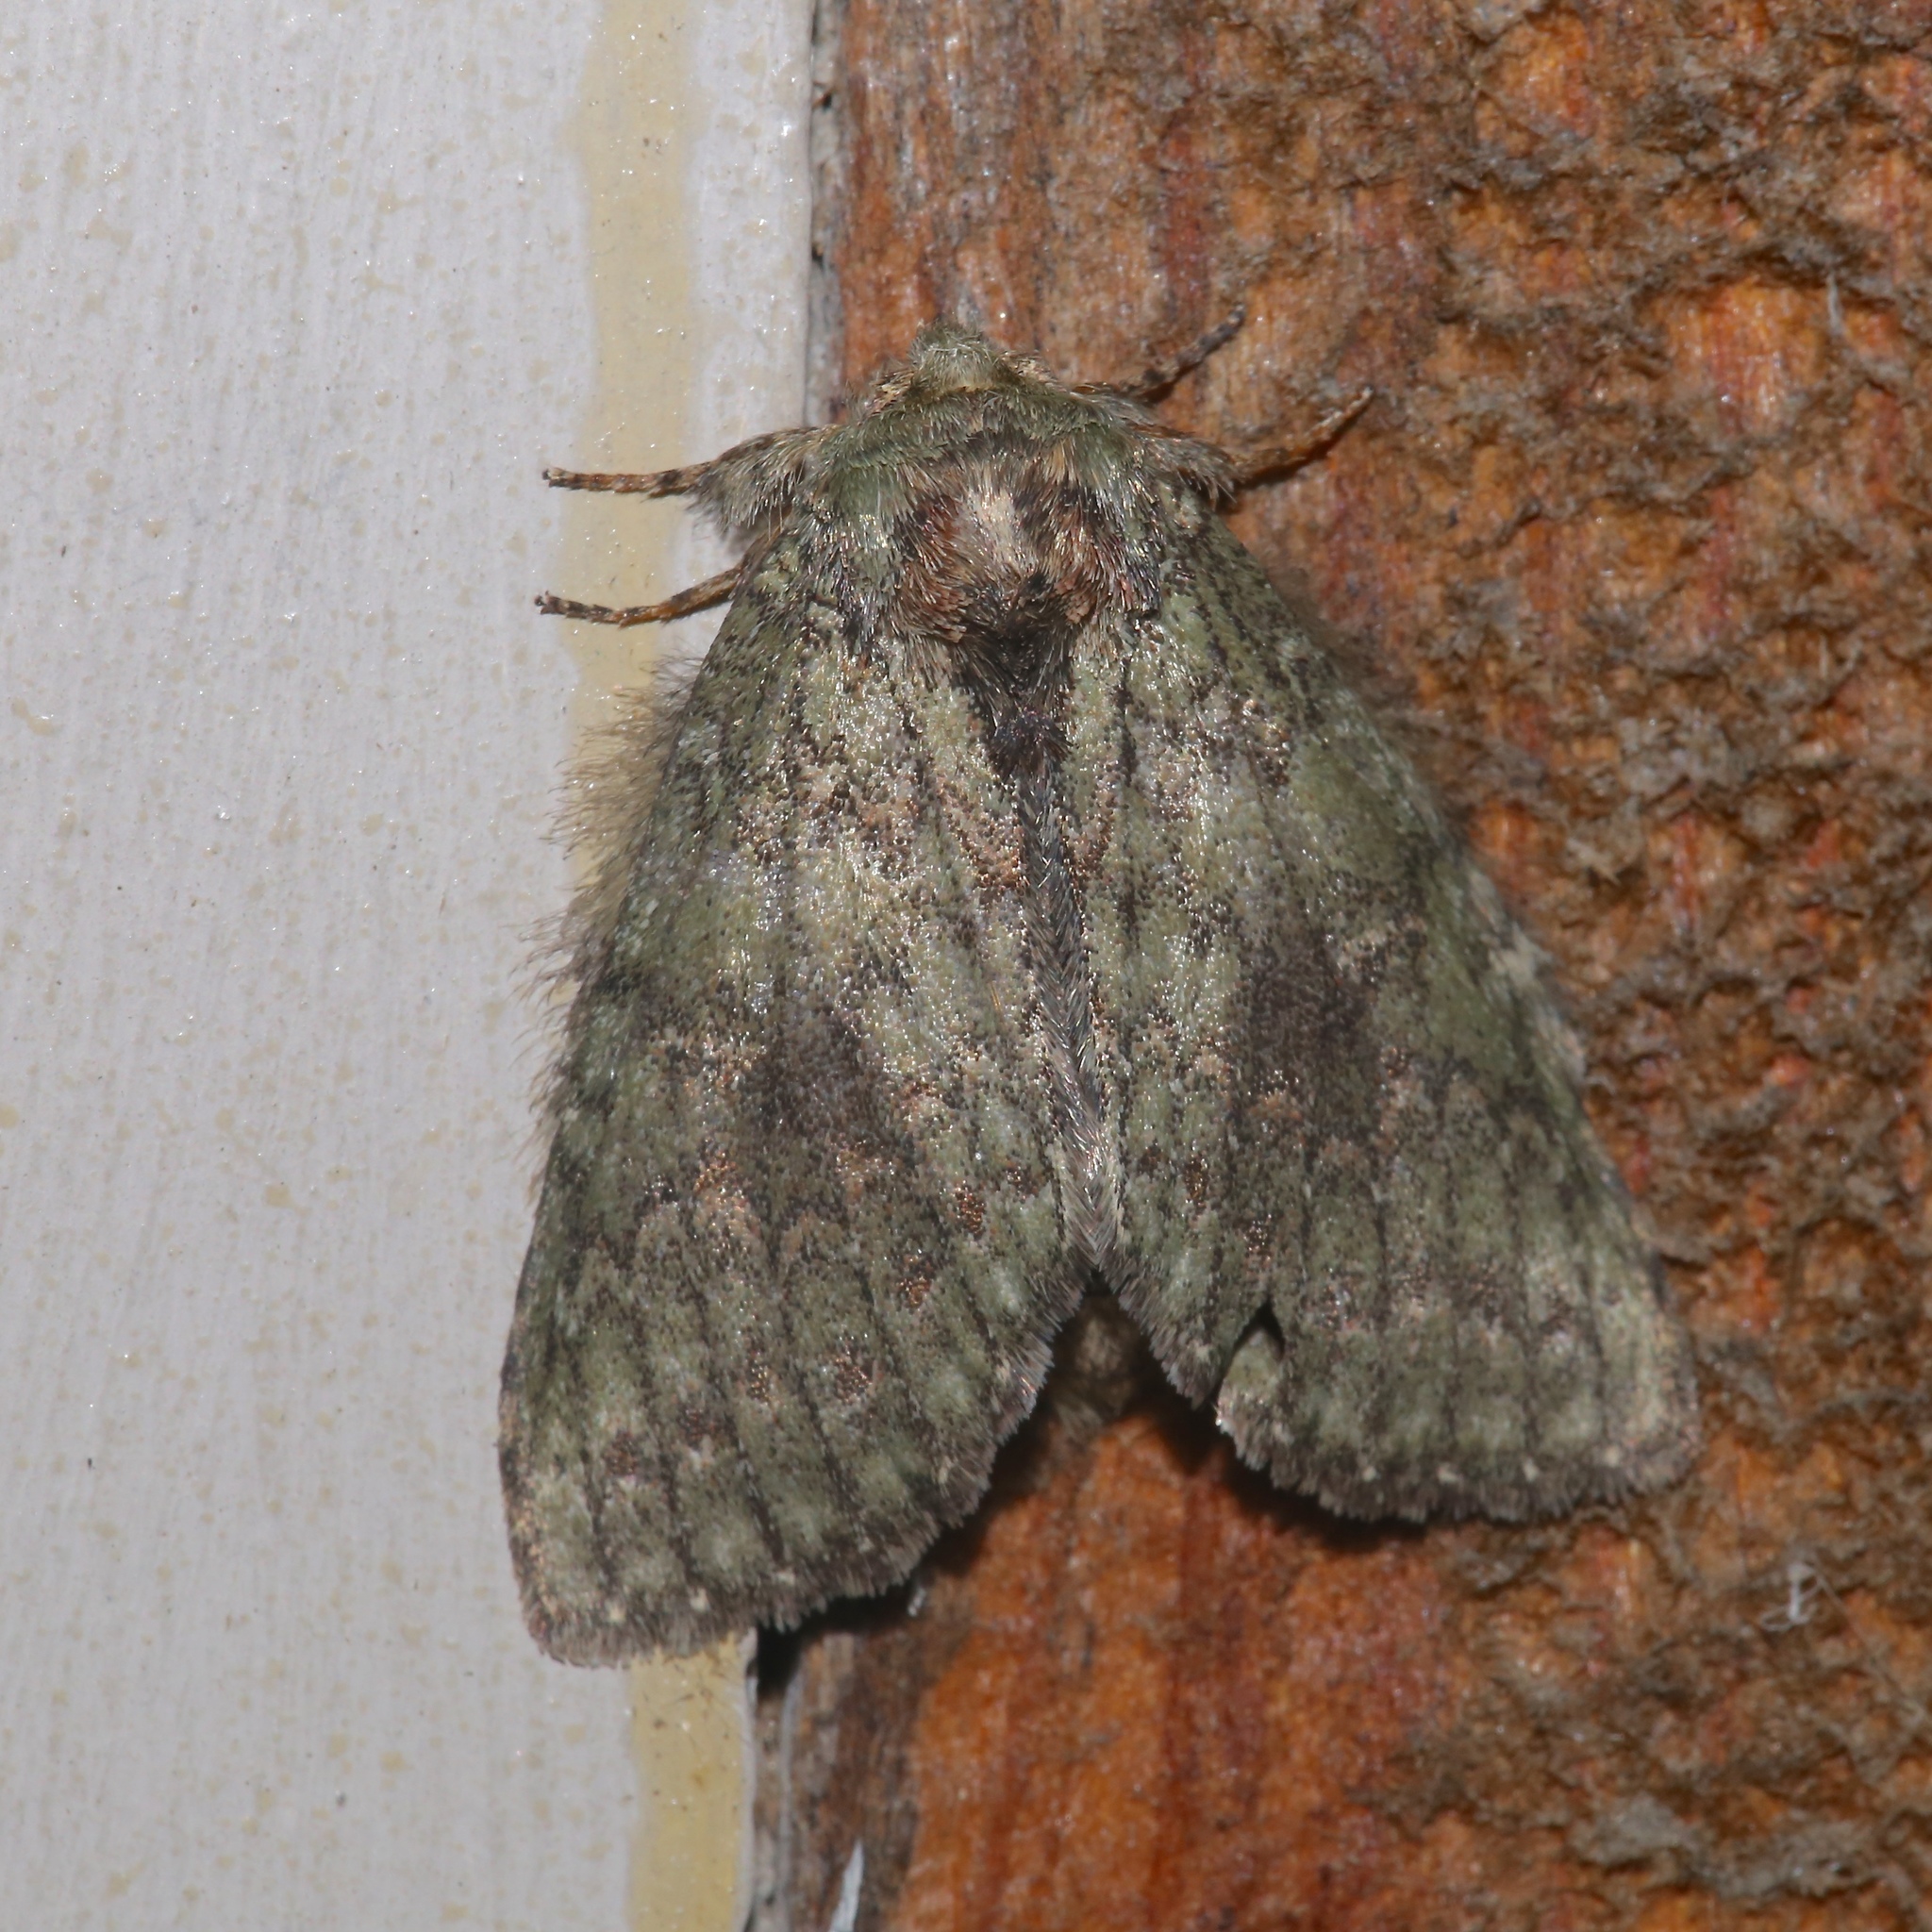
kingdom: Animalia
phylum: Arthropoda
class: Insecta
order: Lepidoptera
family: Notodontidae
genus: Disphragis
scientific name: Disphragis Cecrita biundata
